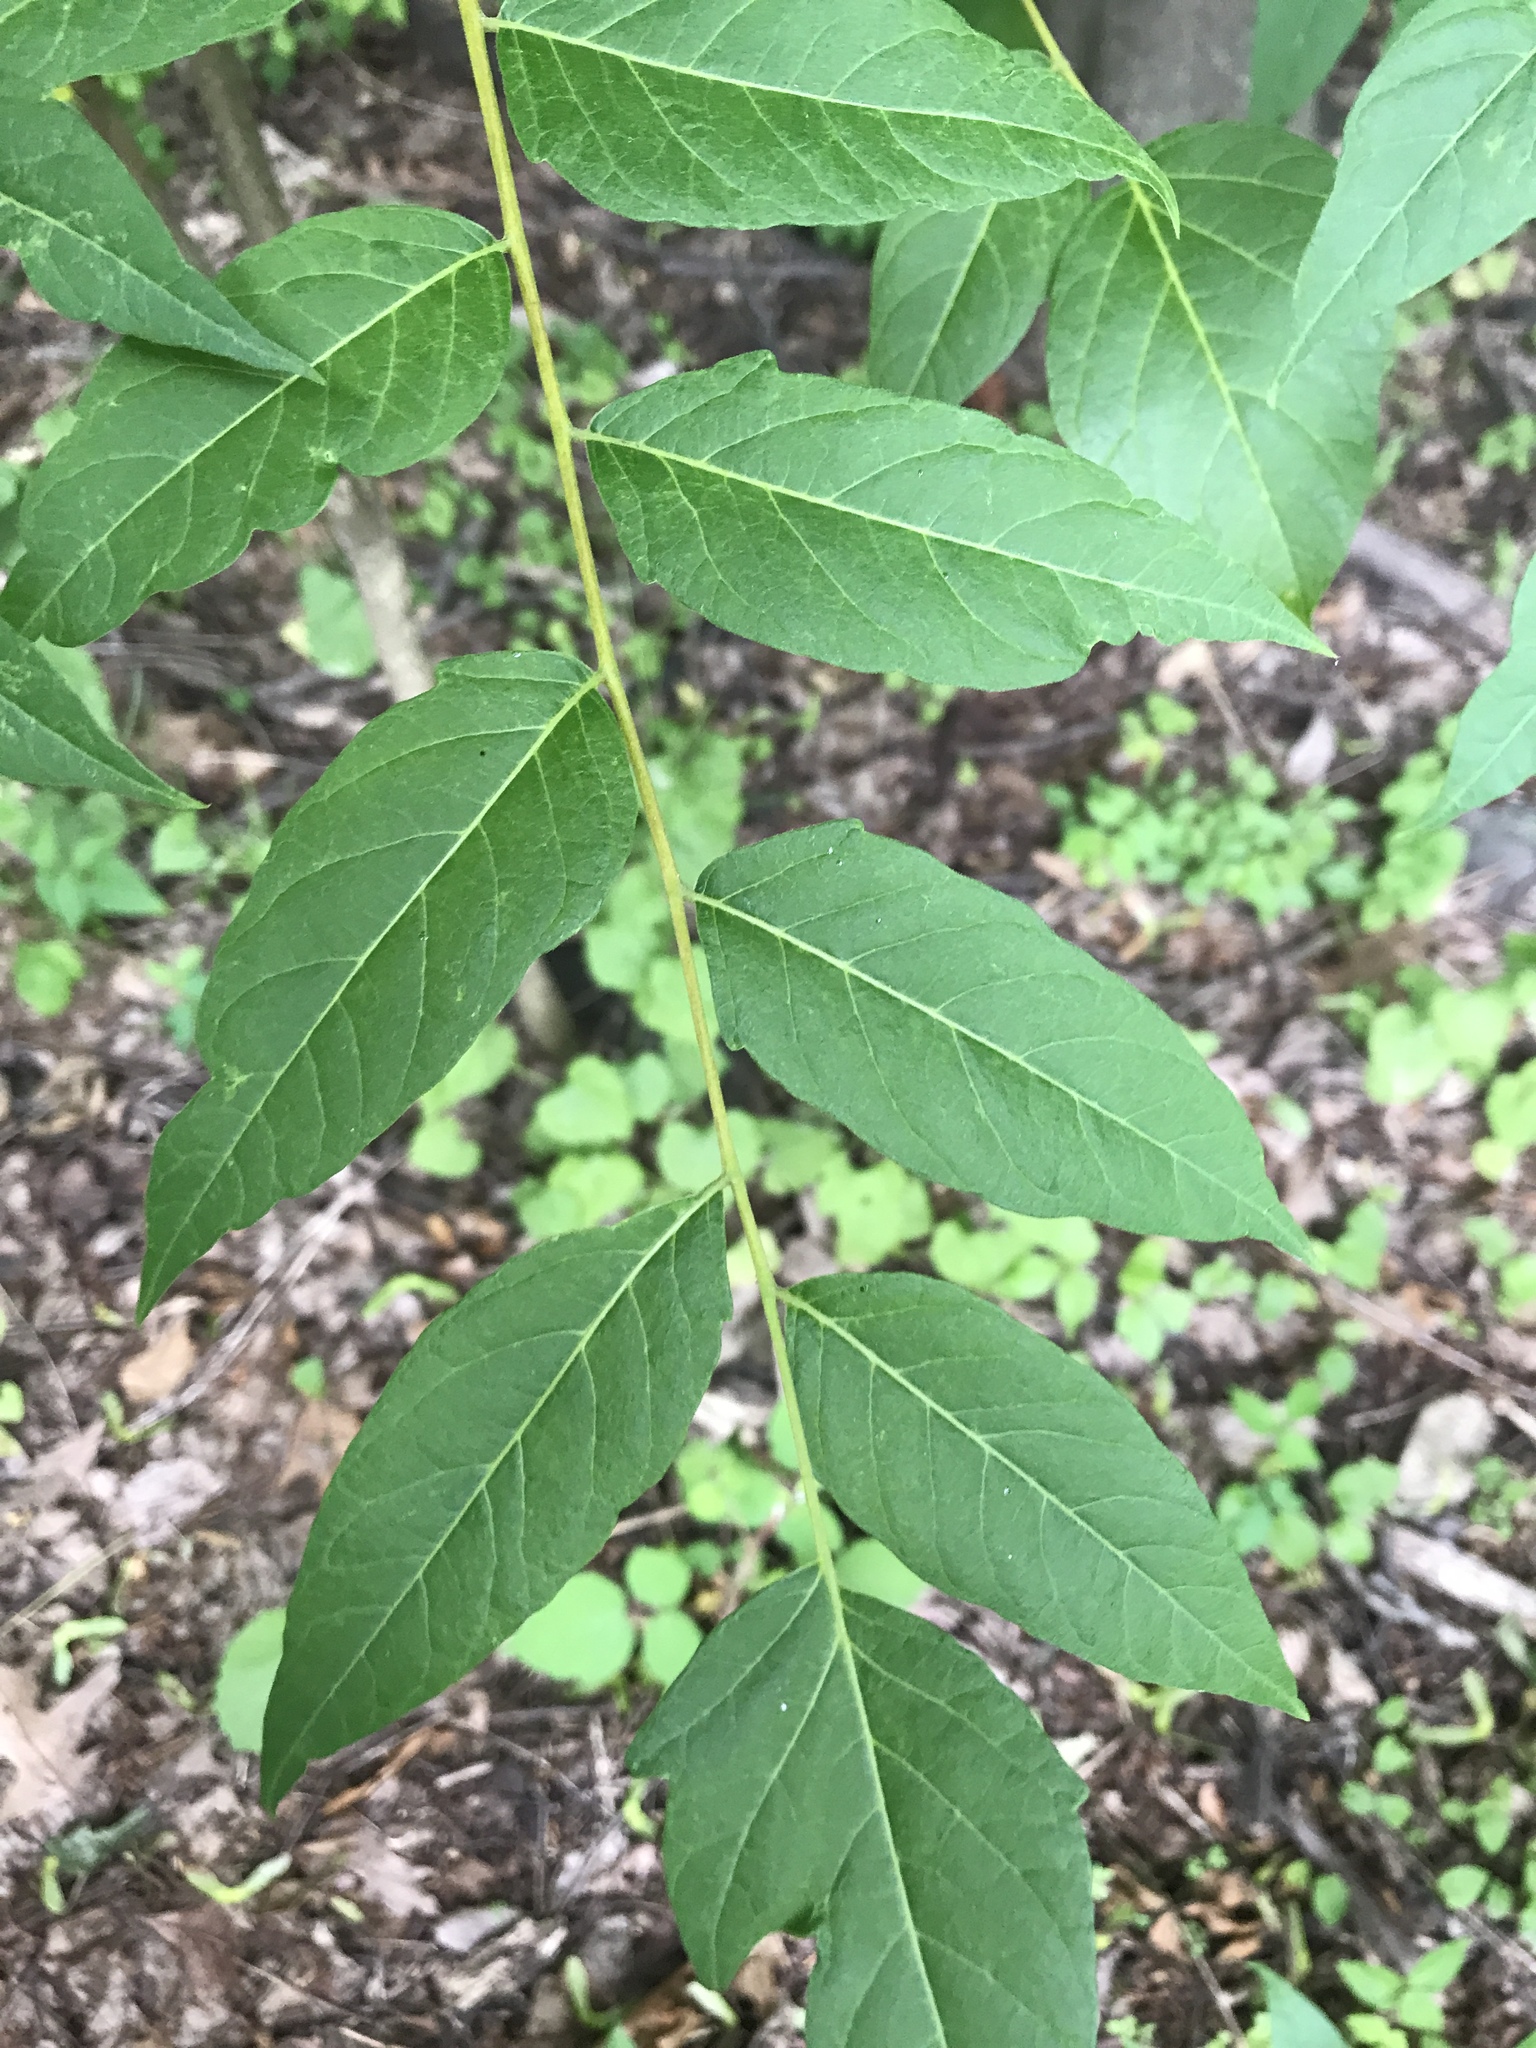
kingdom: Plantae
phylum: Tracheophyta
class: Magnoliopsida
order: Sapindales
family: Simaroubaceae
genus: Ailanthus
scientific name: Ailanthus altissima
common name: Tree-of-heaven
